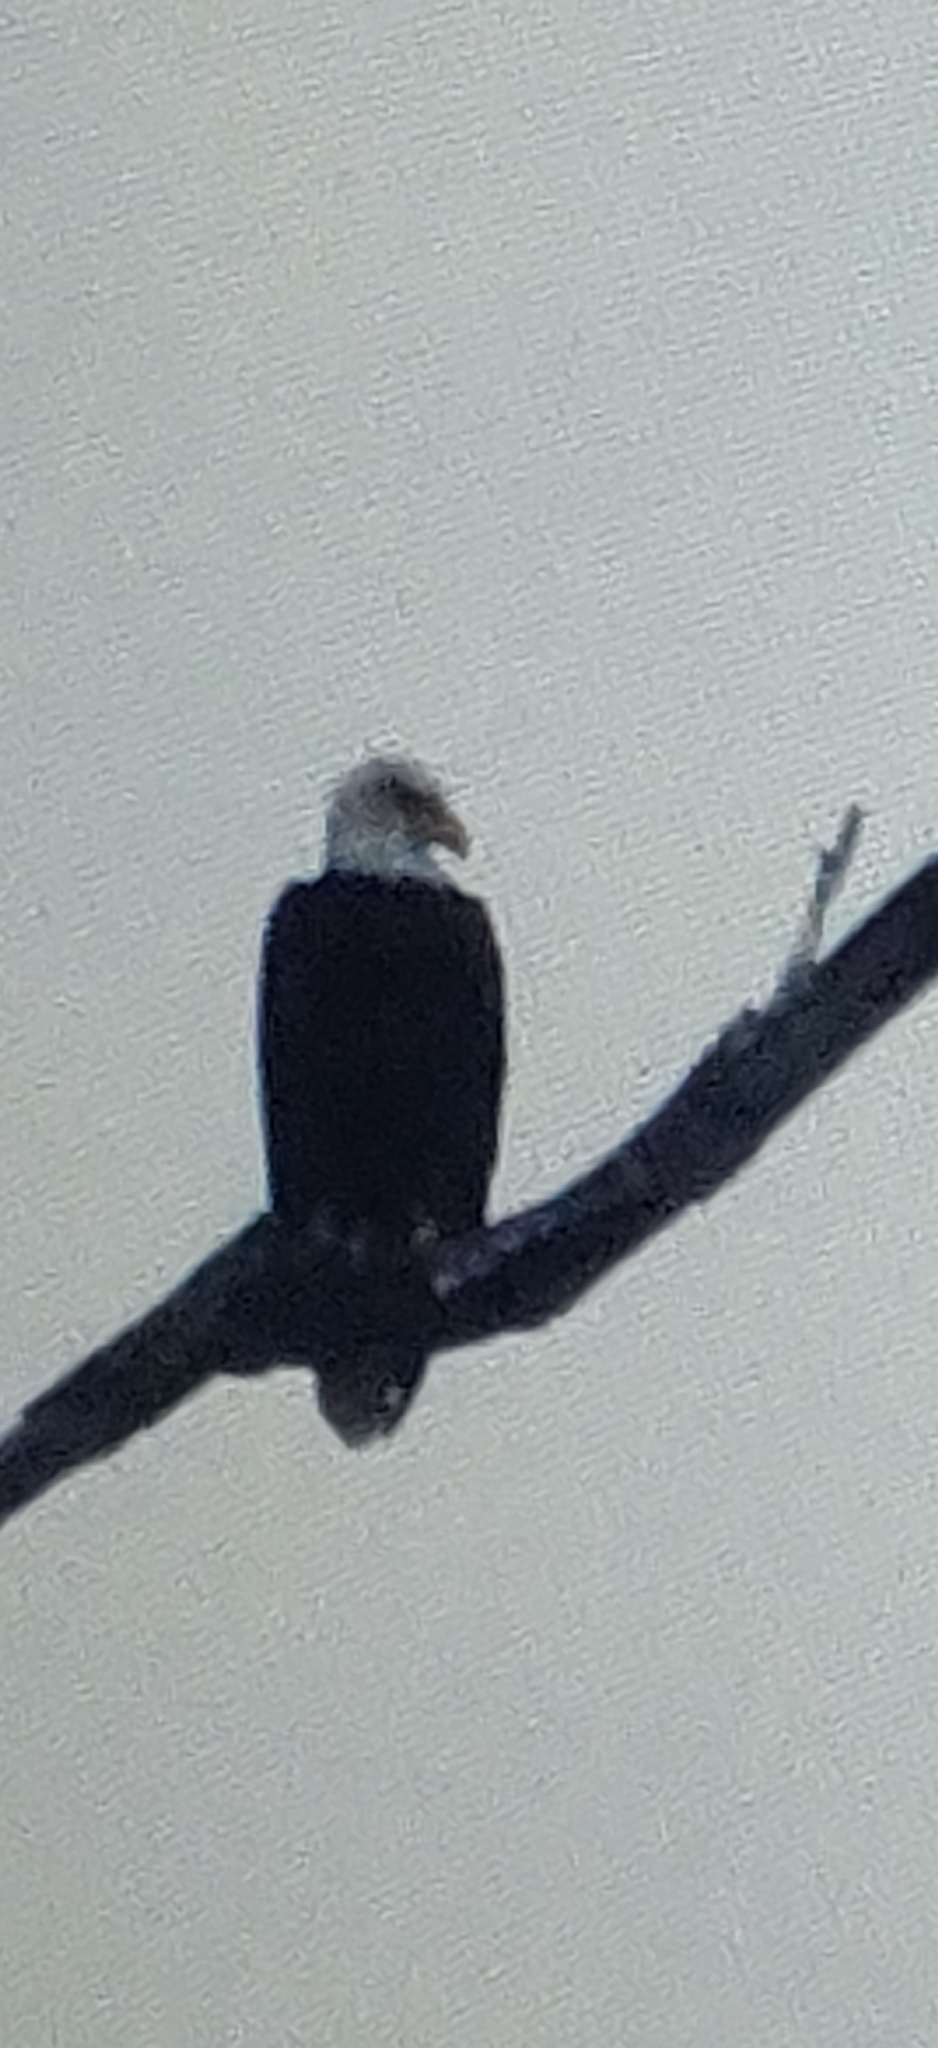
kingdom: Animalia
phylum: Chordata
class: Aves
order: Accipitriformes
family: Accipitridae
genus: Haliaeetus
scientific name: Haliaeetus leucocephalus
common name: Bald eagle
